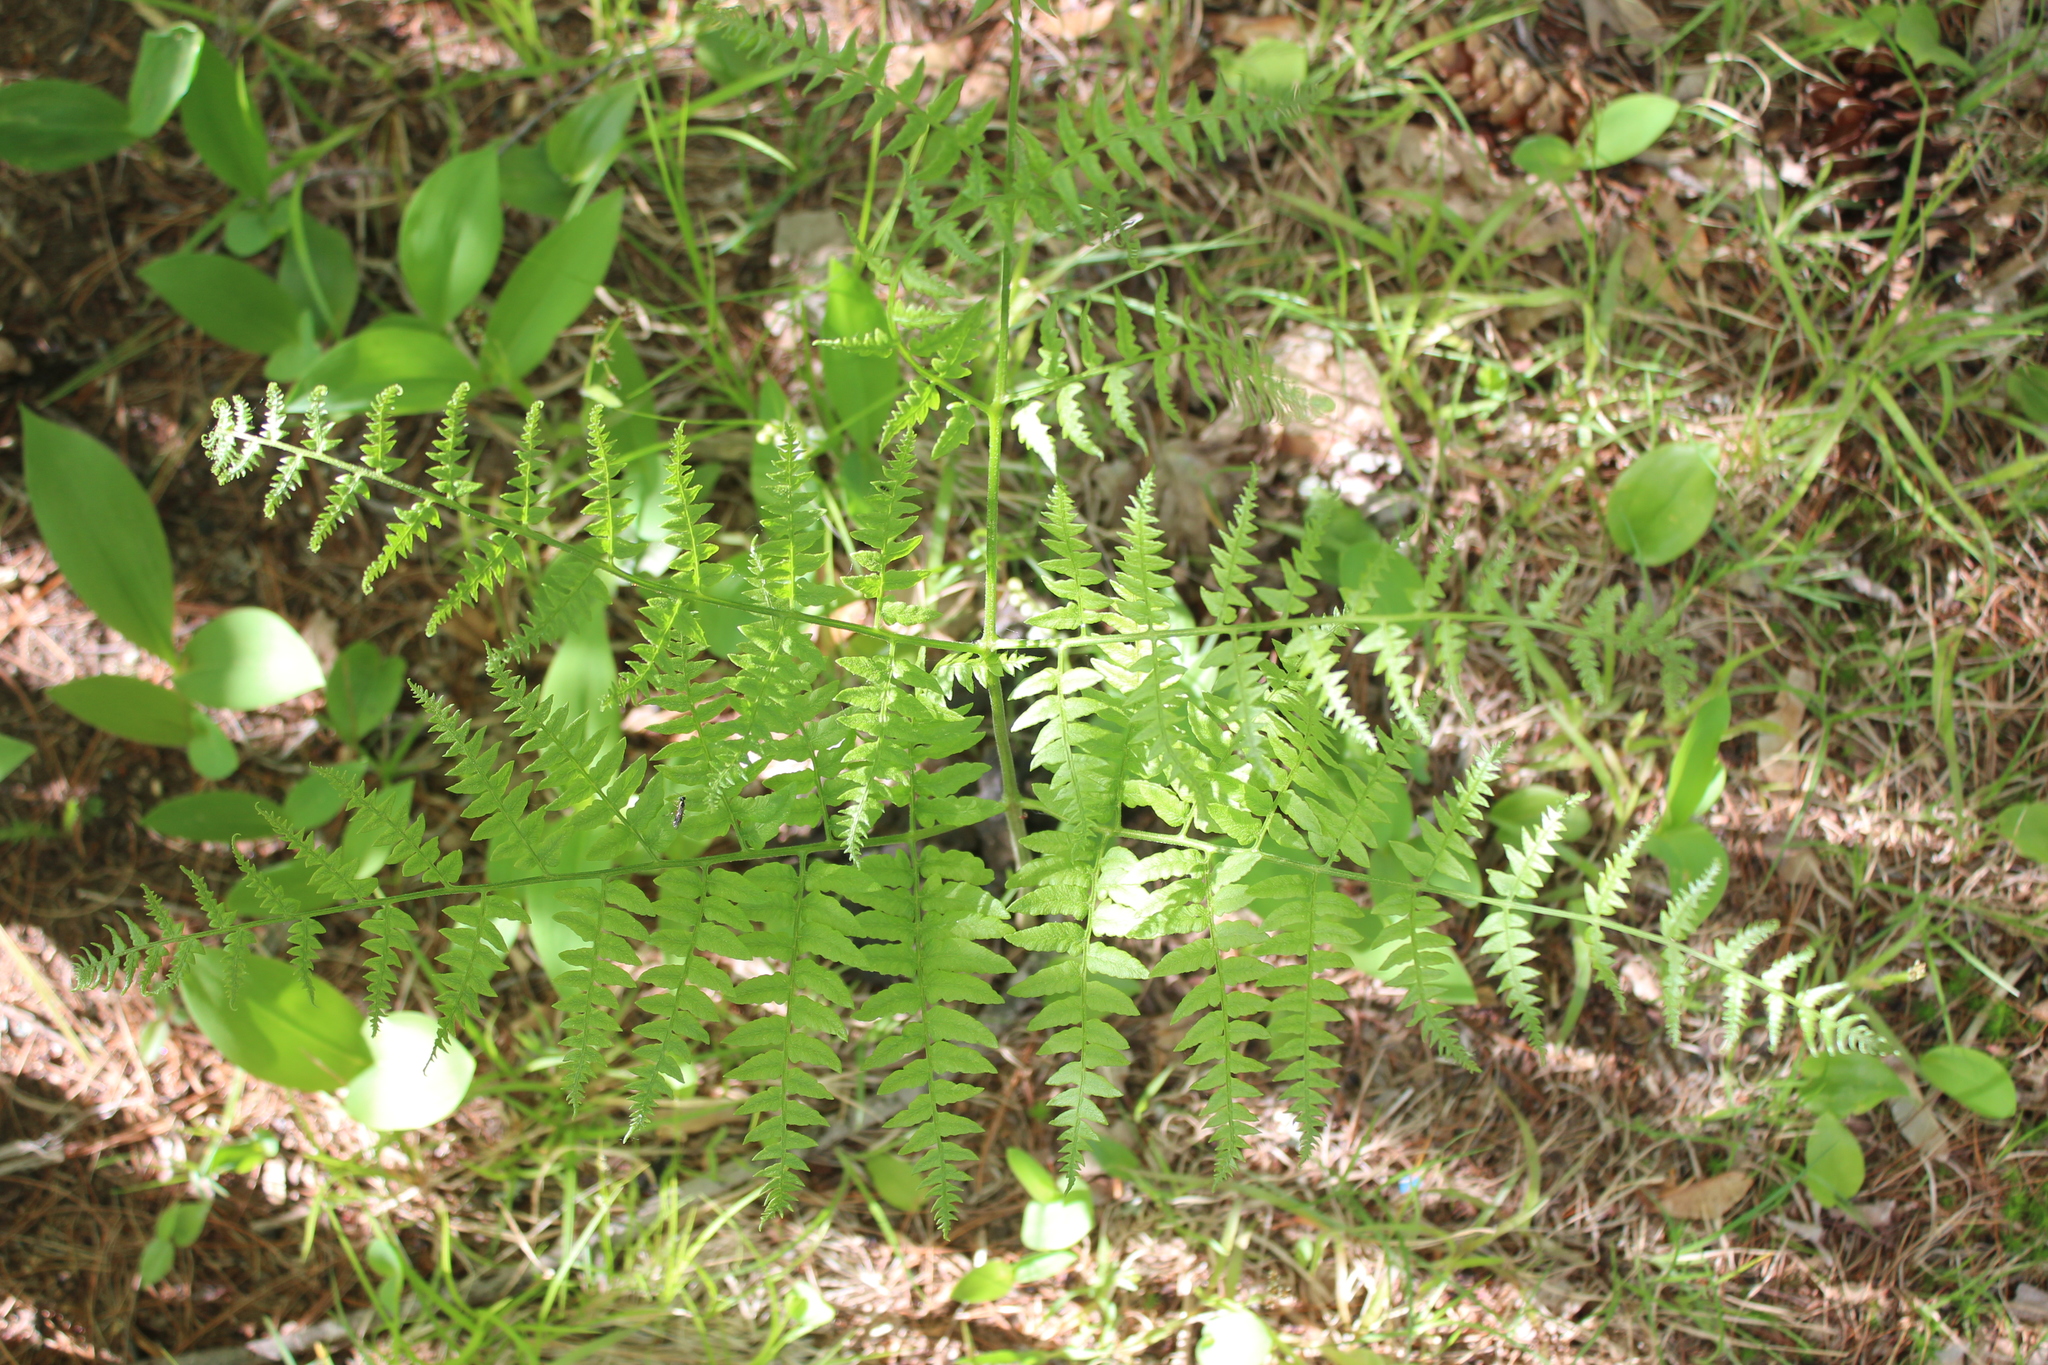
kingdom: Plantae
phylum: Tracheophyta
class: Polypodiopsida
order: Polypodiales
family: Dennstaedtiaceae
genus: Pteridium
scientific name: Pteridium aquilinum
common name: Bracken
